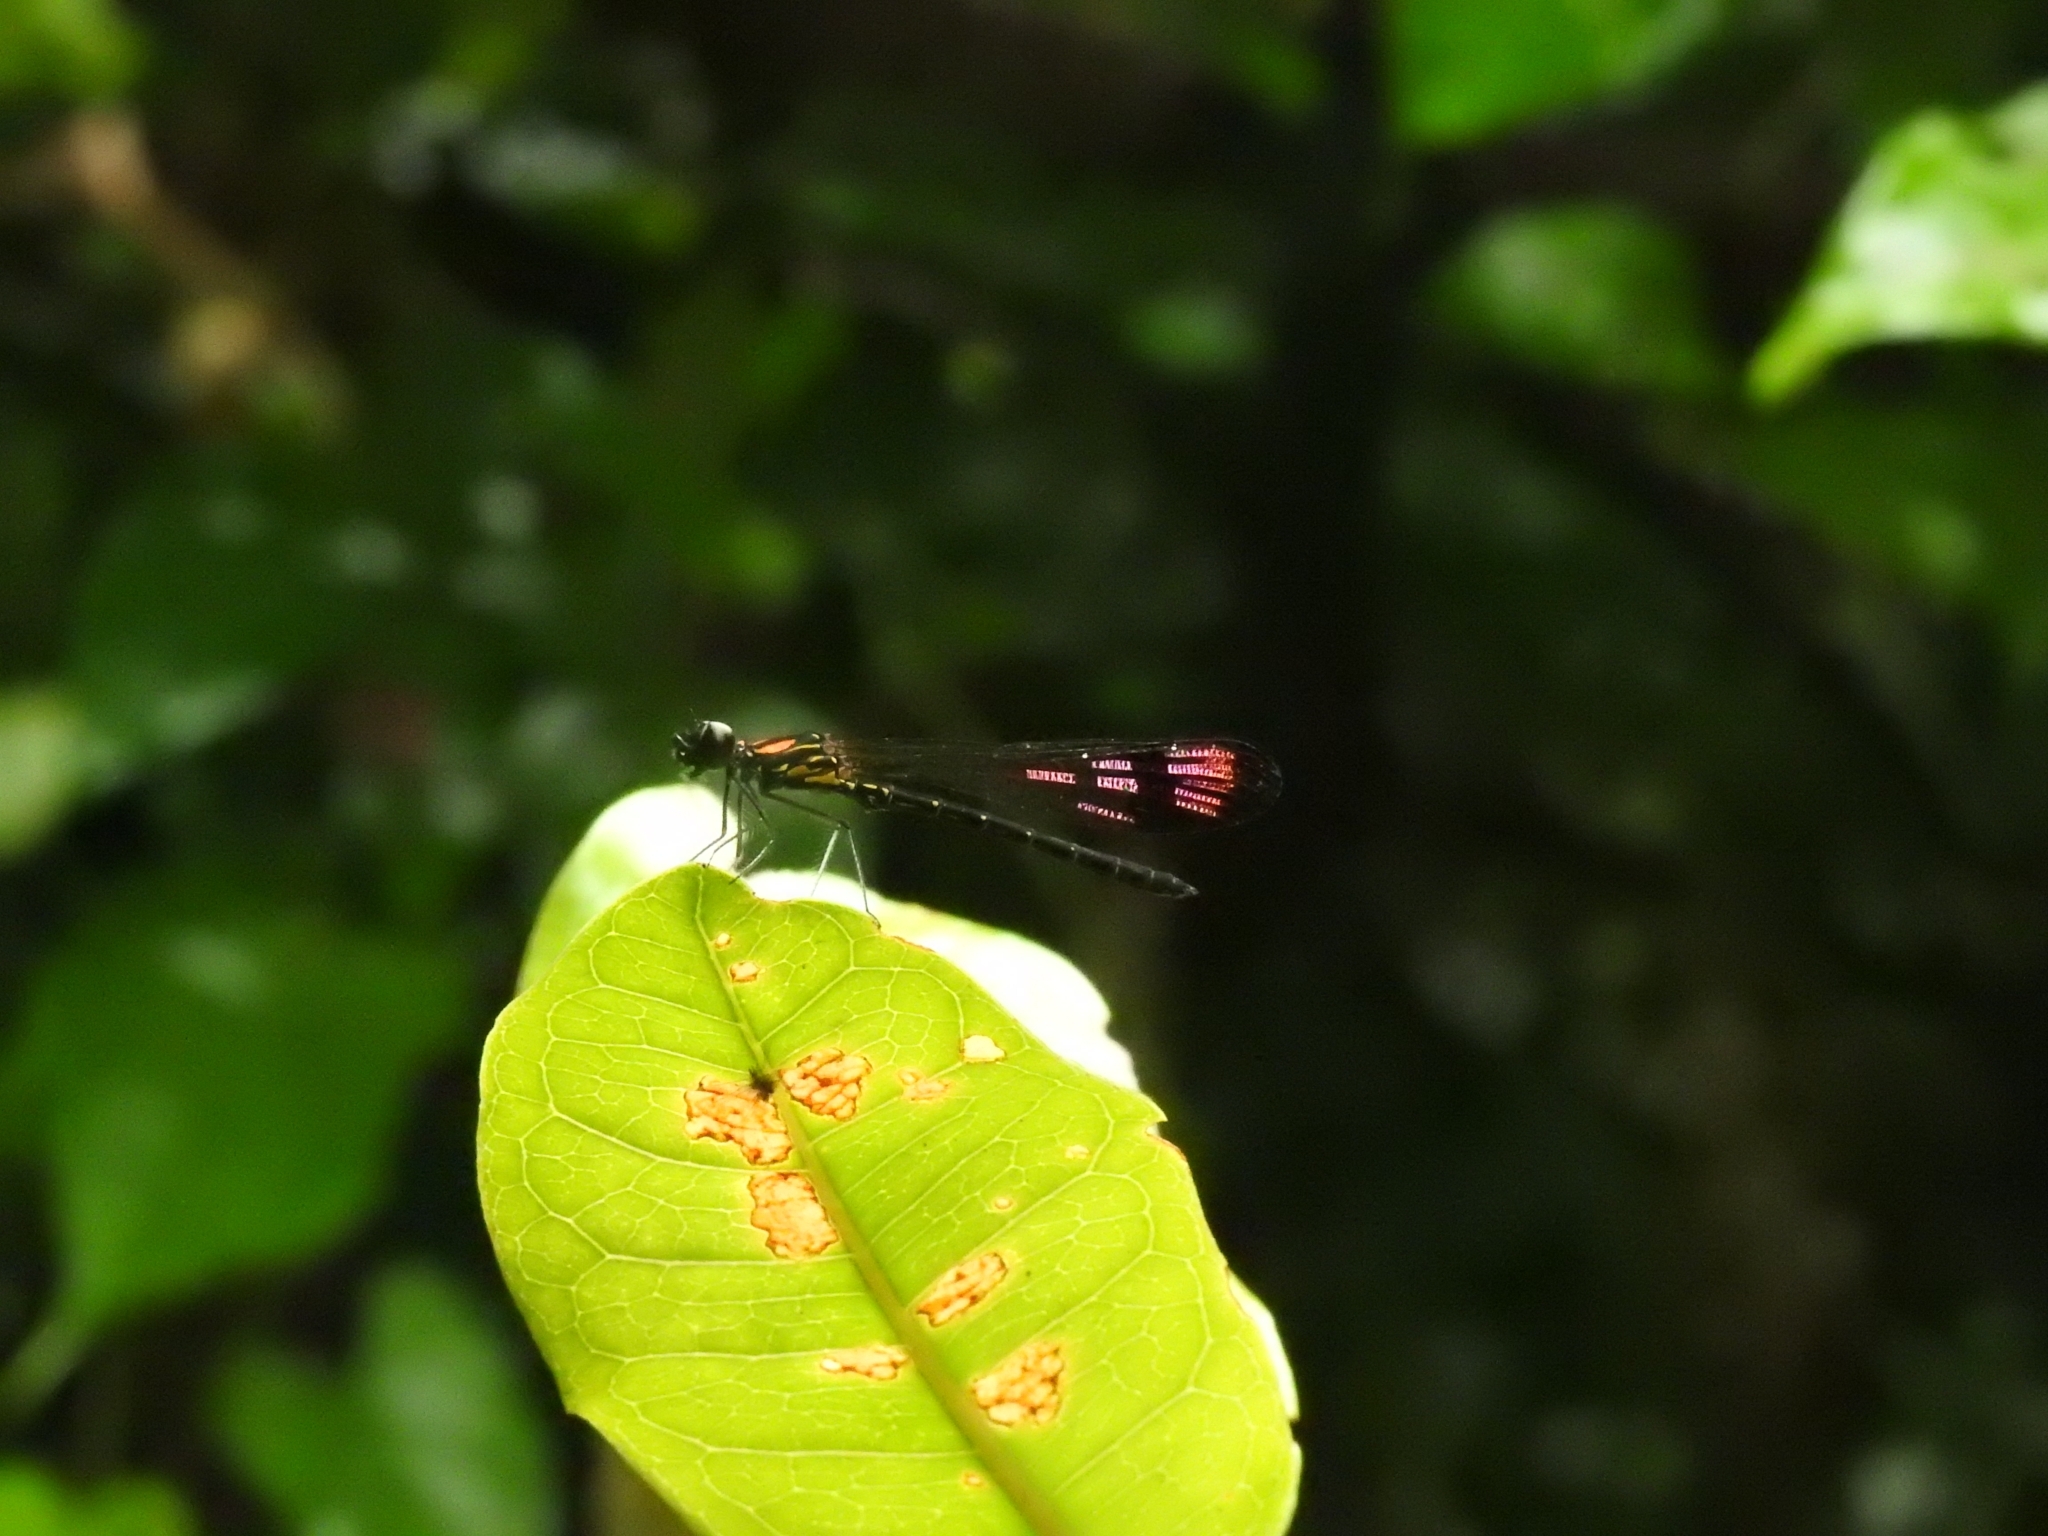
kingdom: Animalia
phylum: Arthropoda
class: Insecta
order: Odonata
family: Chlorocyphidae
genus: Heliocypha
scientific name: Heliocypha bisignata
